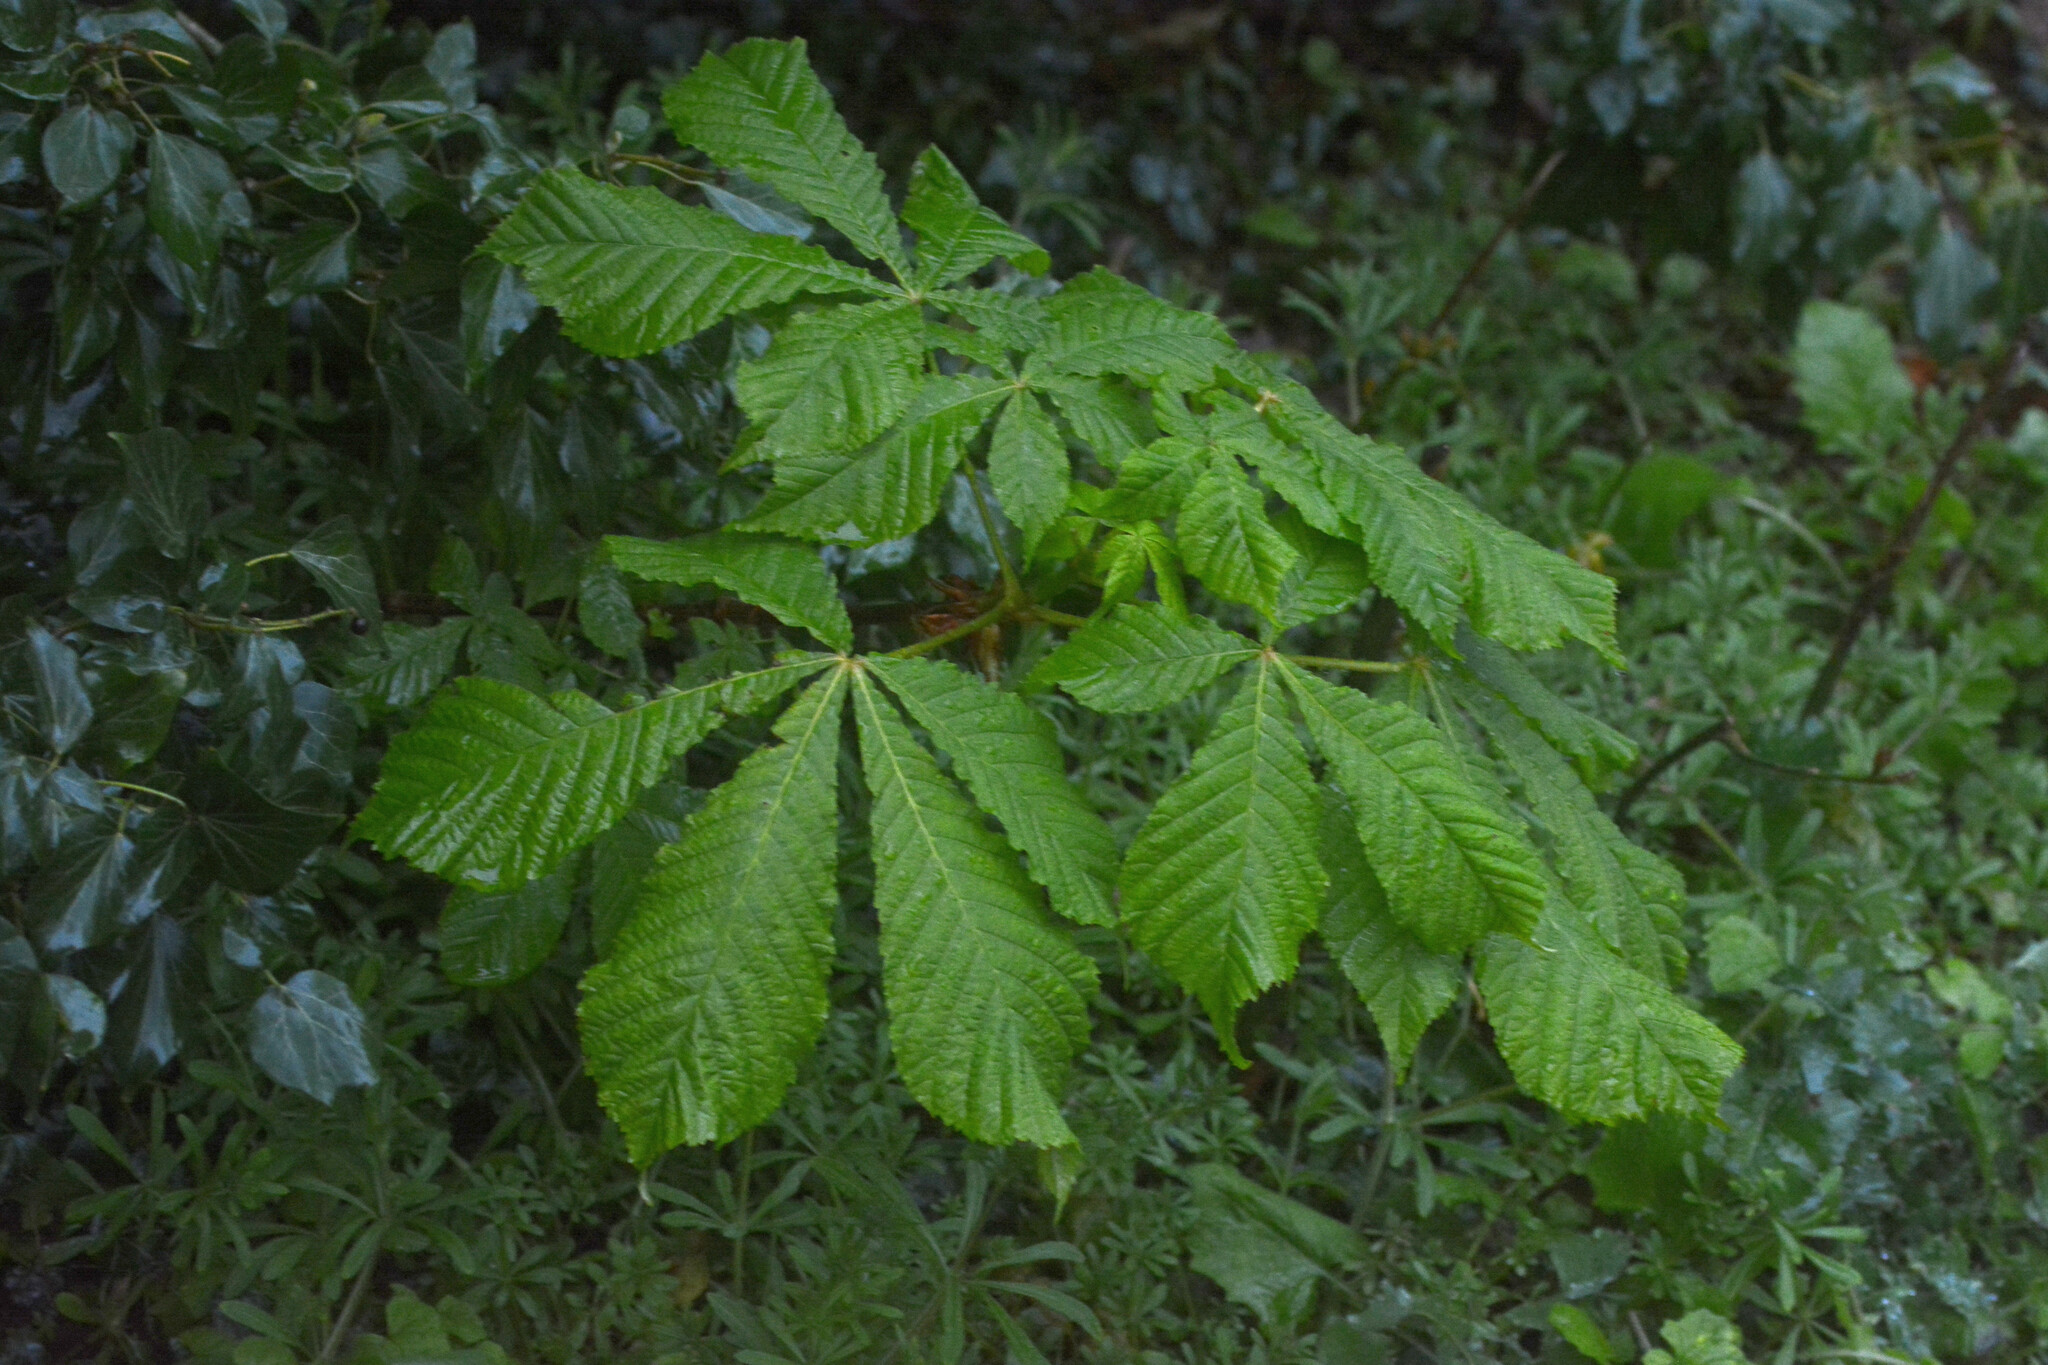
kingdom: Plantae
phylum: Tracheophyta
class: Magnoliopsida
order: Sapindales
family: Sapindaceae
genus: Aesculus
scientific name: Aesculus hippocastanum
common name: Horse-chestnut
